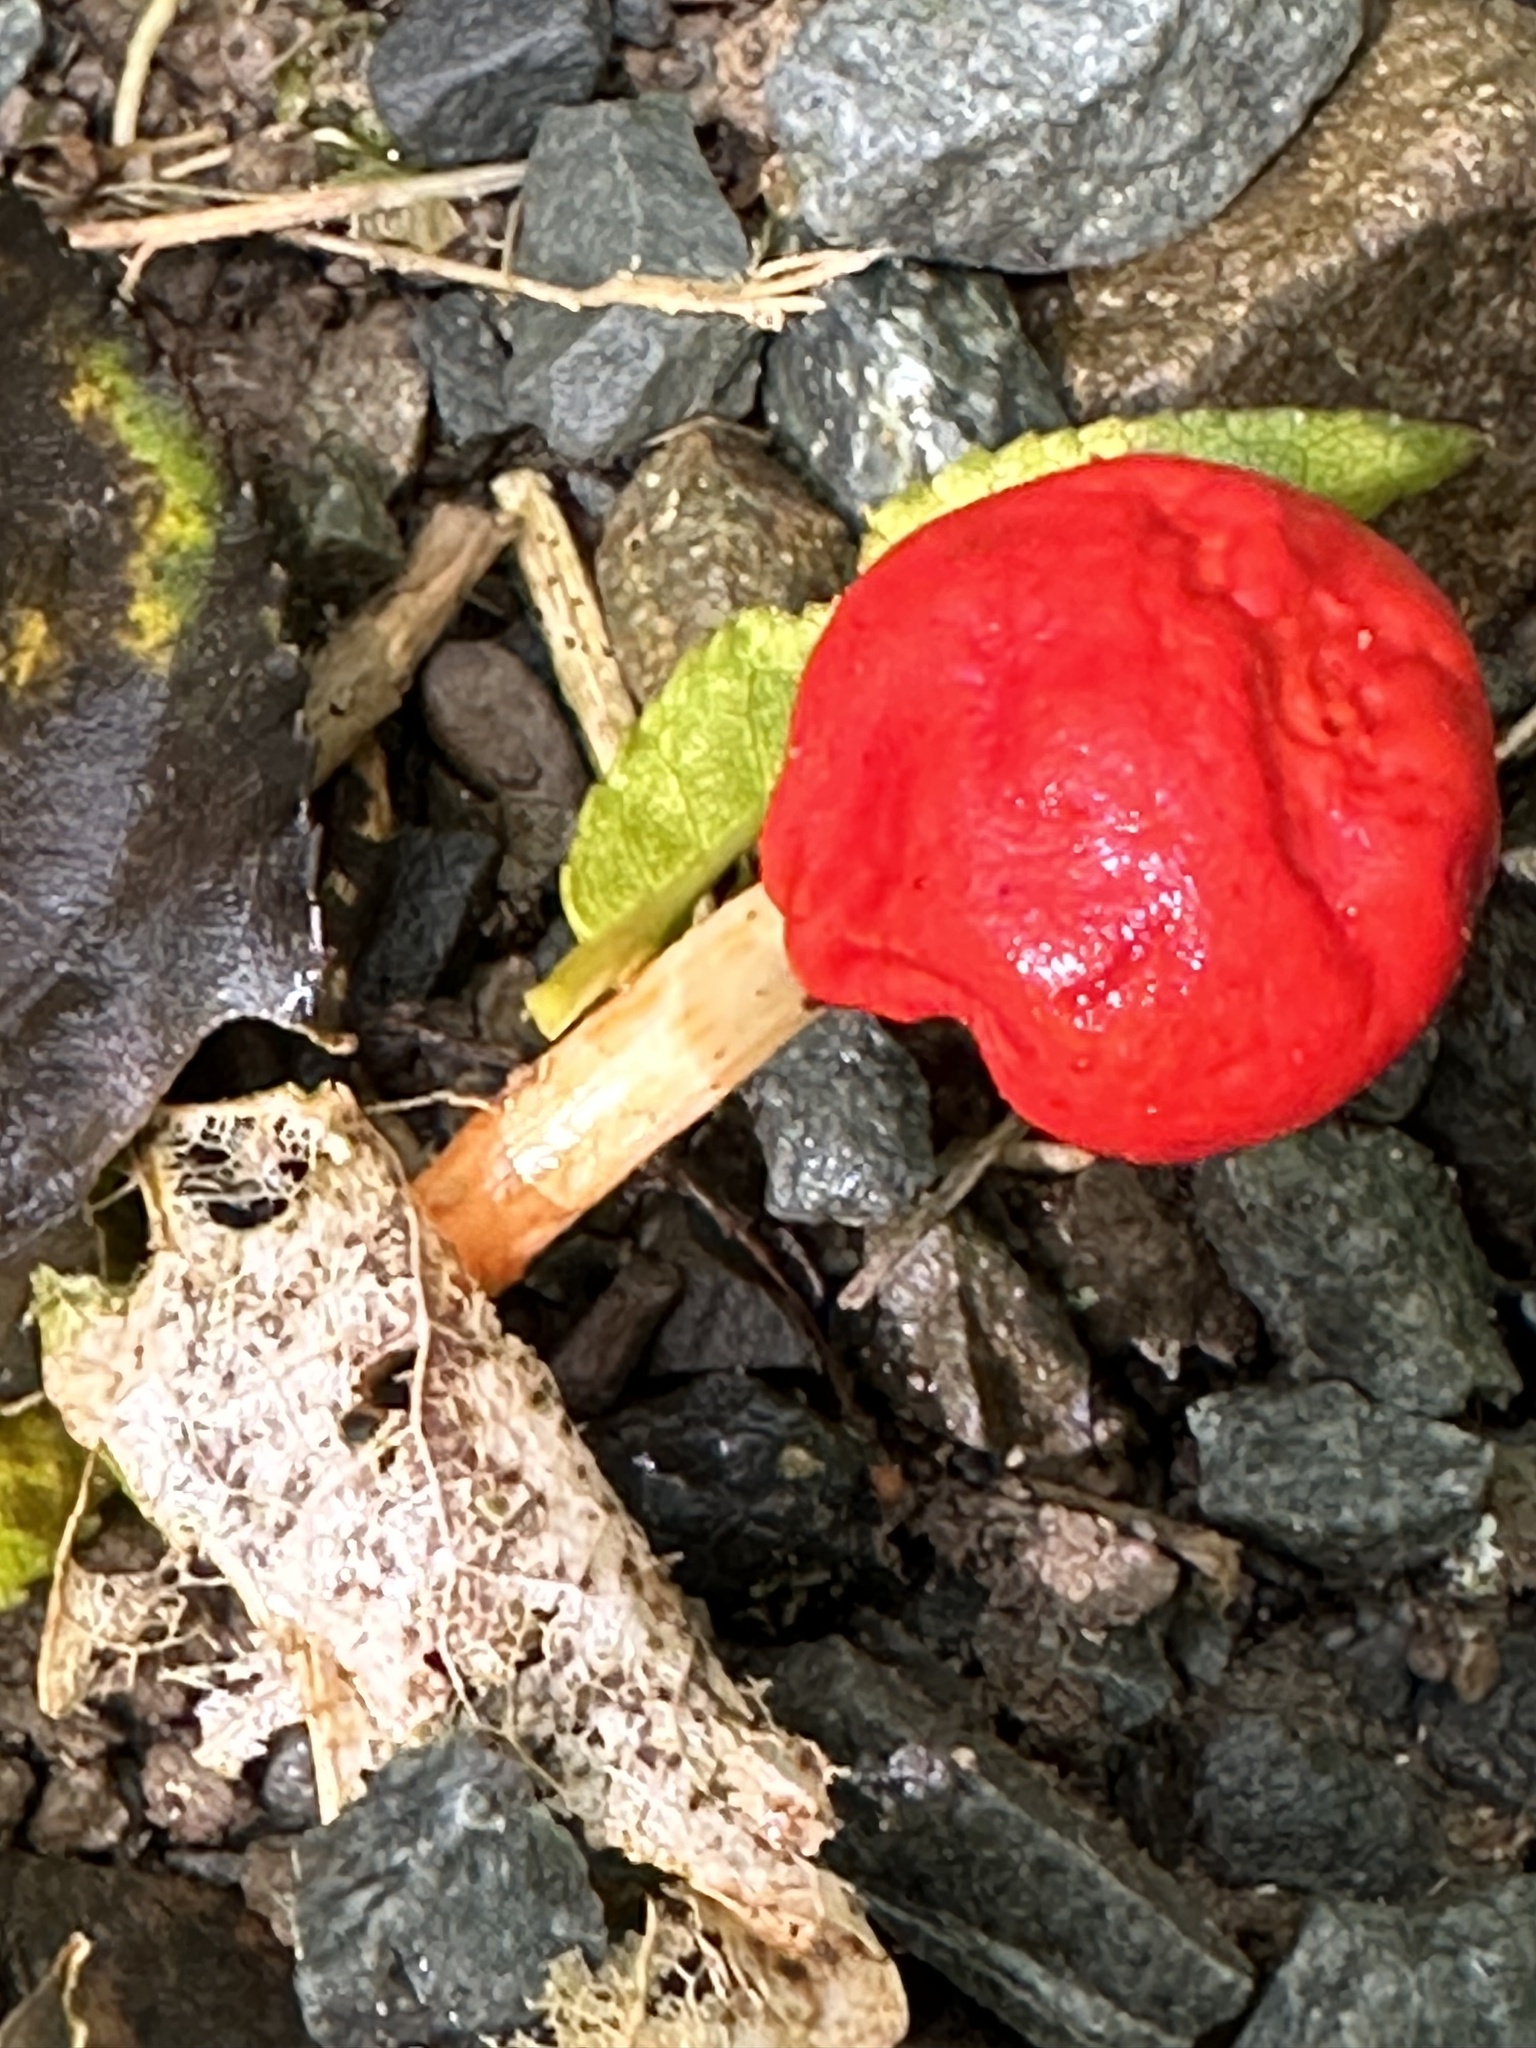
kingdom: Fungi
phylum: Basidiomycota
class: Agaricomycetes
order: Agaricales
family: Strophariaceae
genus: Leratiomyces
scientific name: Leratiomyces erythrocephalus
